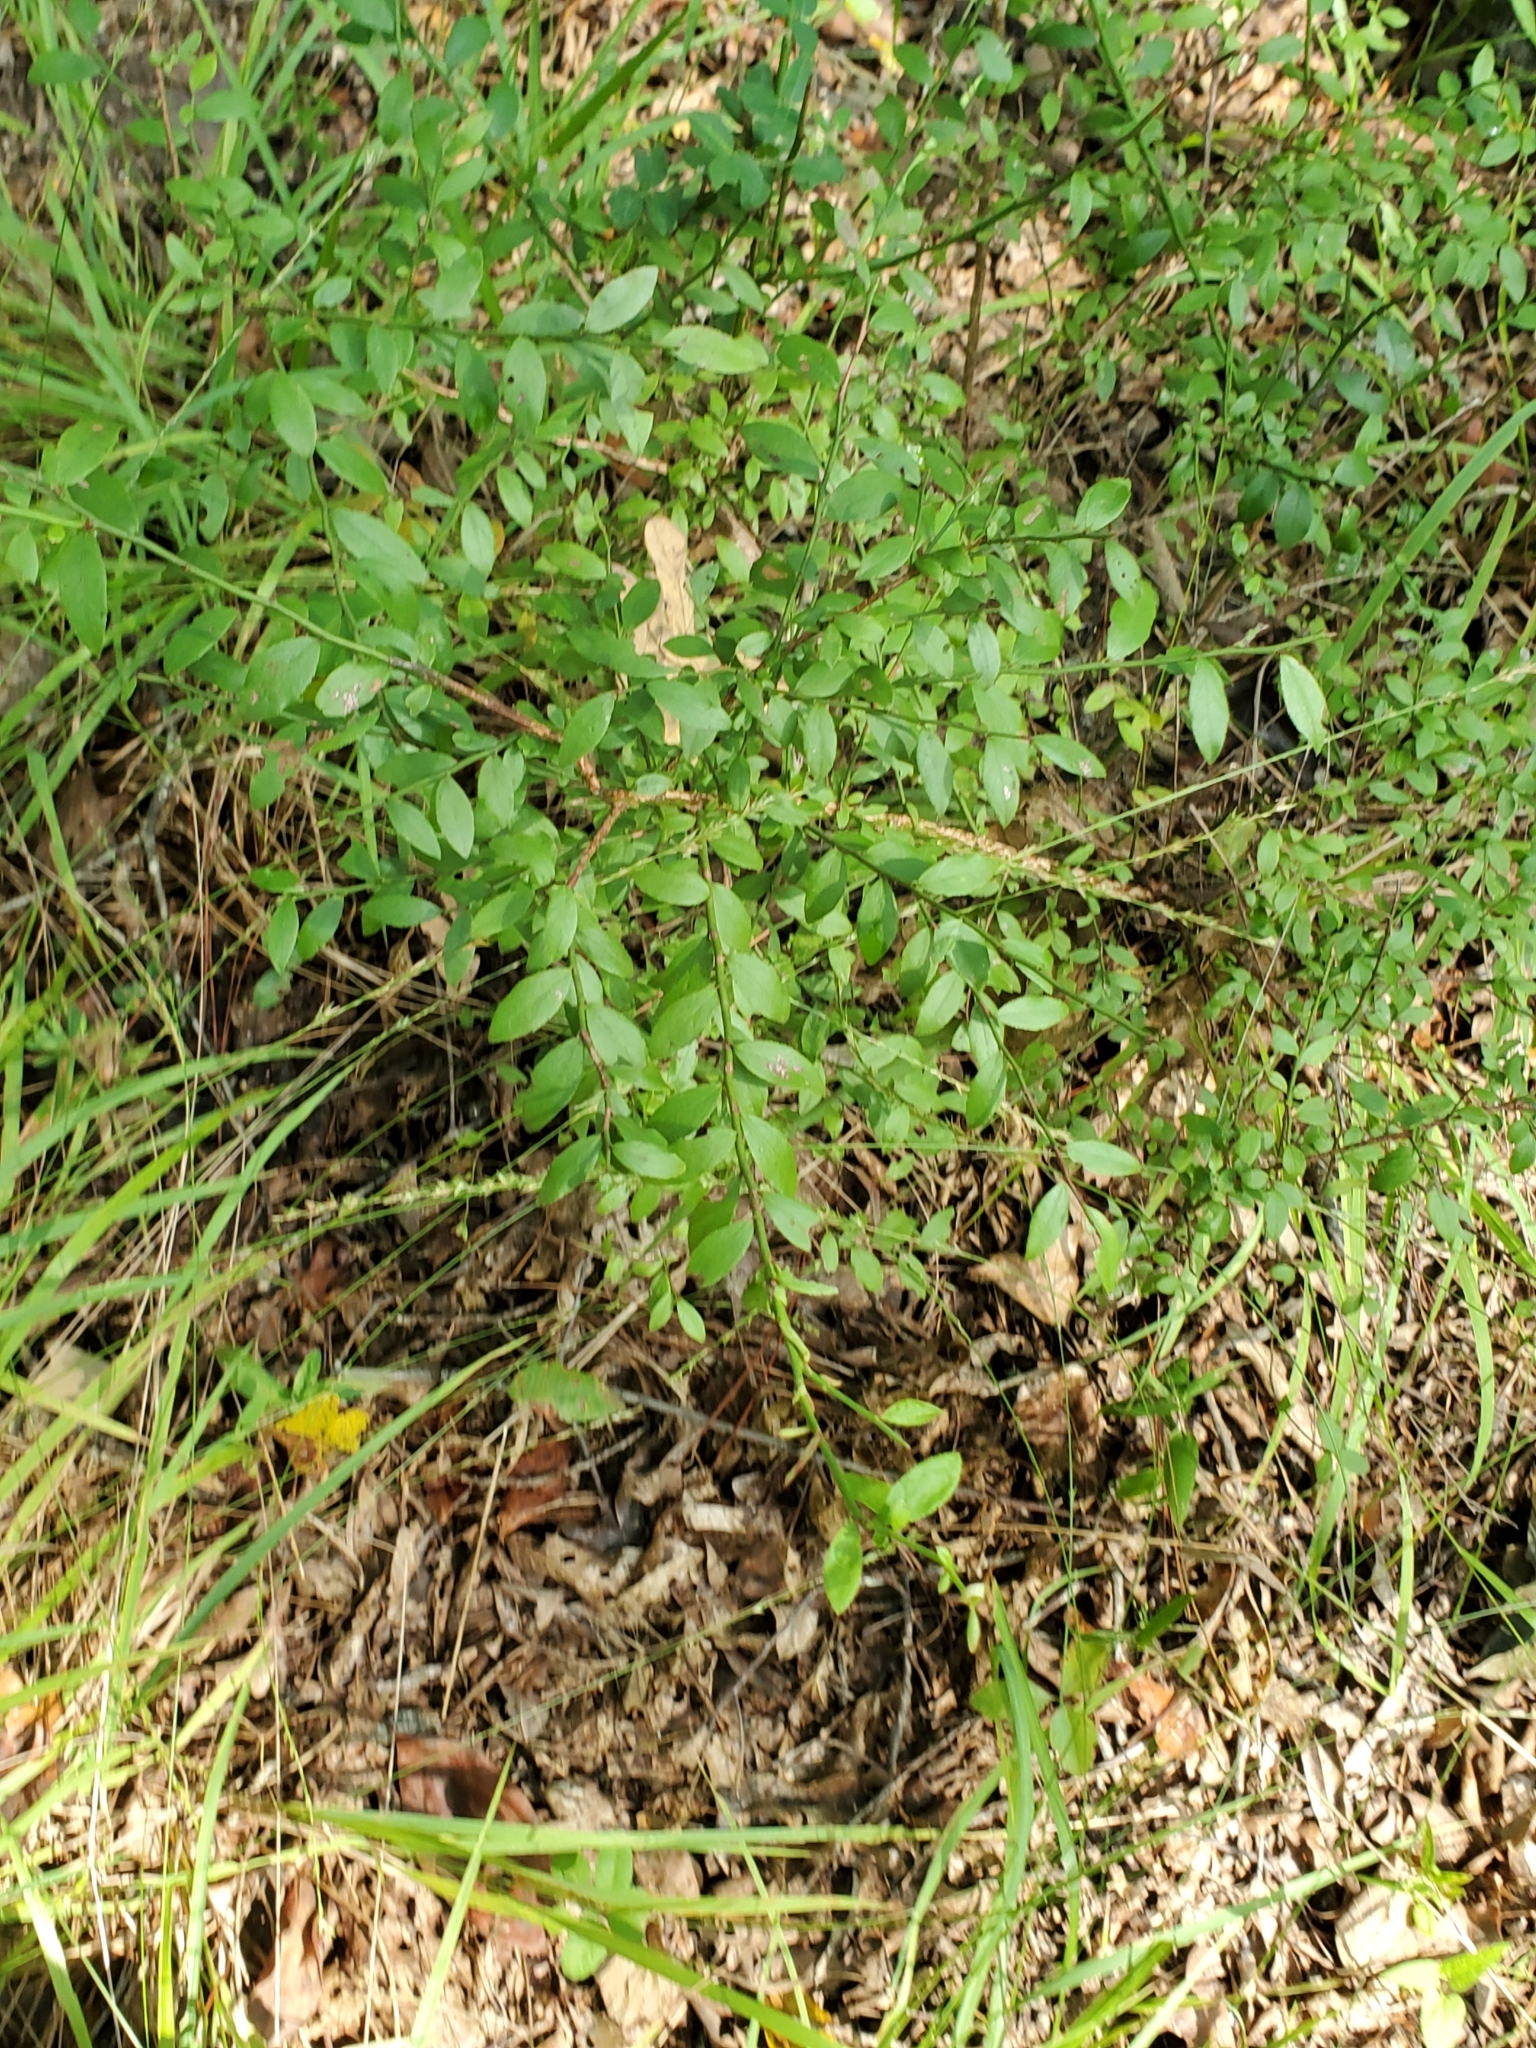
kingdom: Plantae
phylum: Tracheophyta
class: Magnoliopsida
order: Ericales
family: Ericaceae
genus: Vaccinium
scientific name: Vaccinium corymbosum
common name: Blueberry
